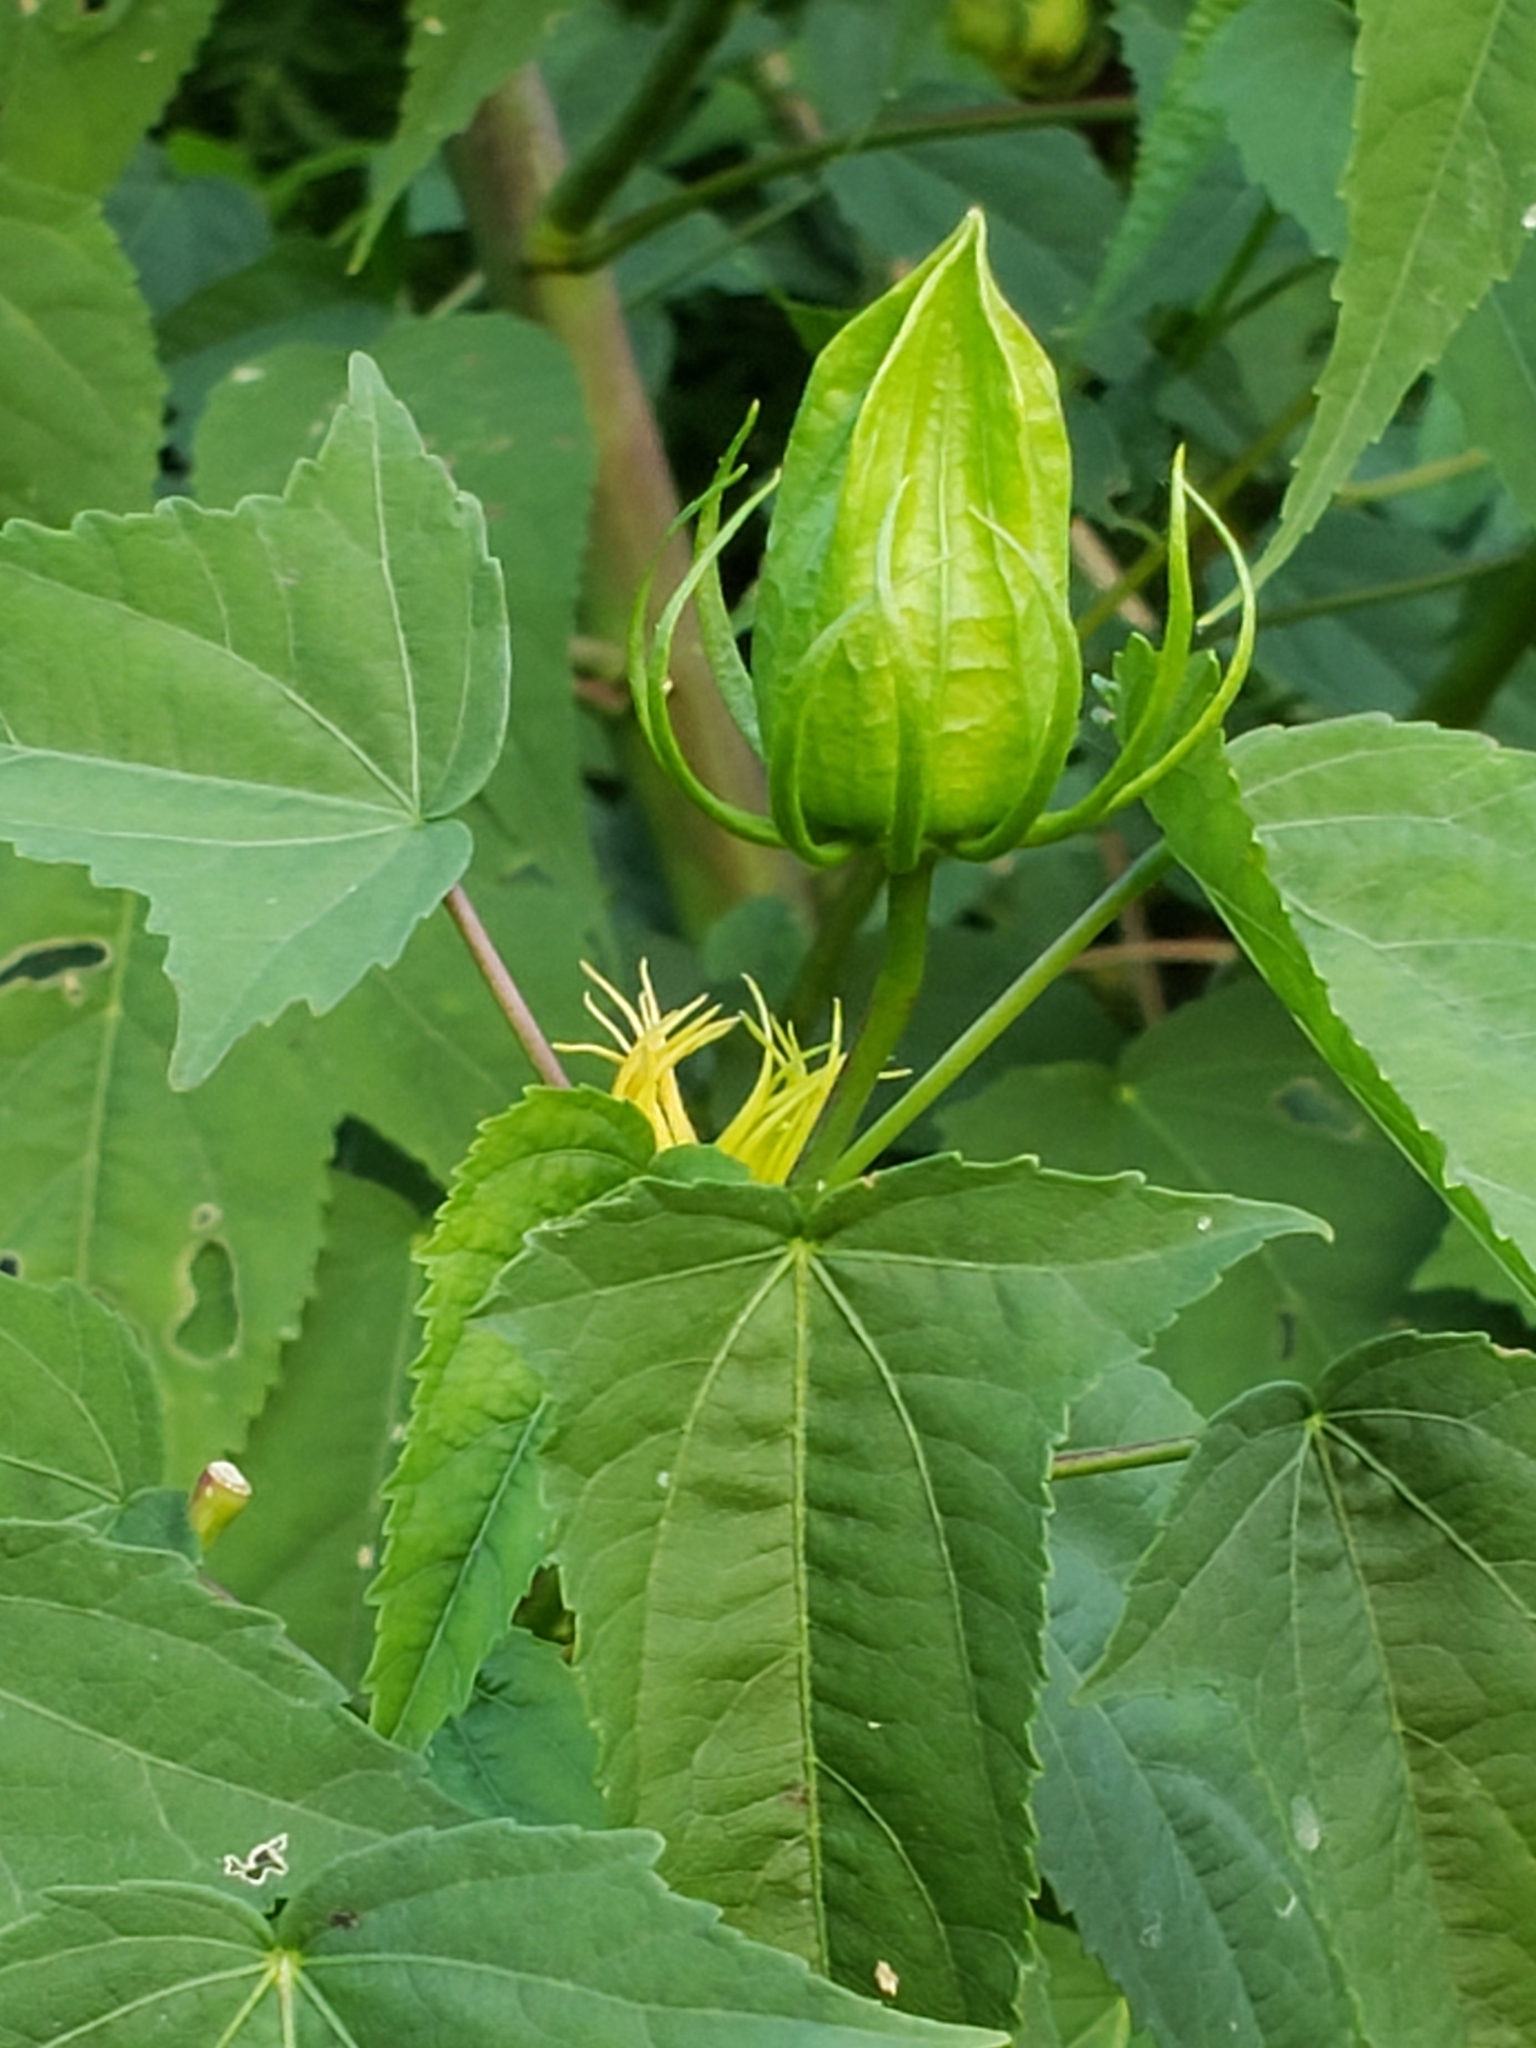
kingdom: Plantae
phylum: Tracheophyta
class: Magnoliopsida
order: Malvales
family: Malvaceae
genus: Hibiscus
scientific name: Hibiscus laevis
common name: Scarlet rose-mallow
